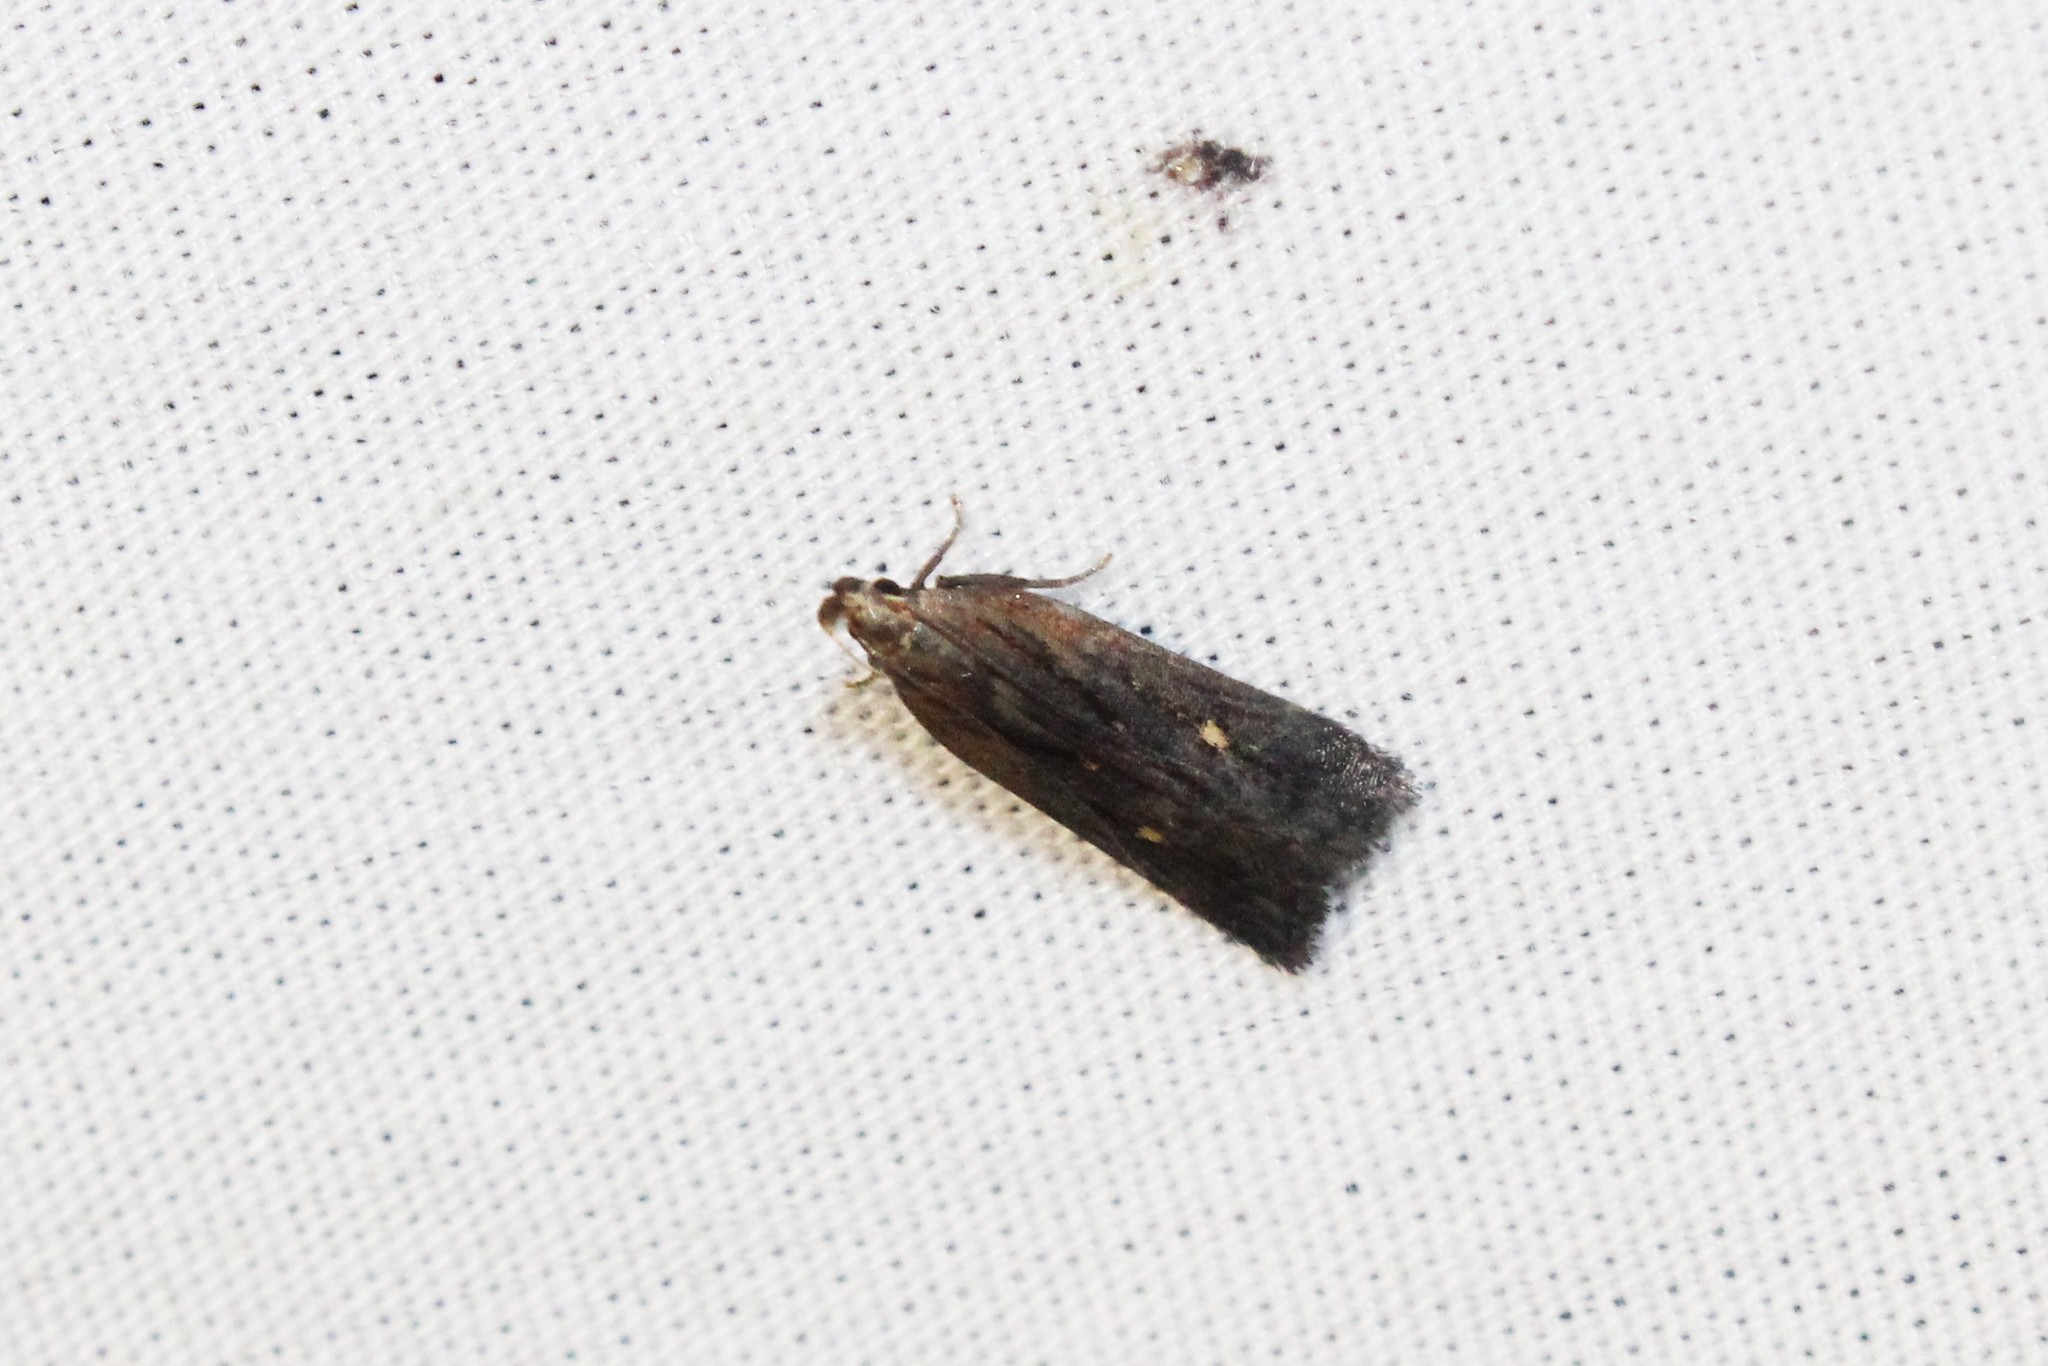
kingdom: Animalia
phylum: Arthropoda
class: Insecta
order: Lepidoptera
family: Gelechiidae
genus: Dichomeris
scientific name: Dichomeris copa
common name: Copa dichomeris moth
